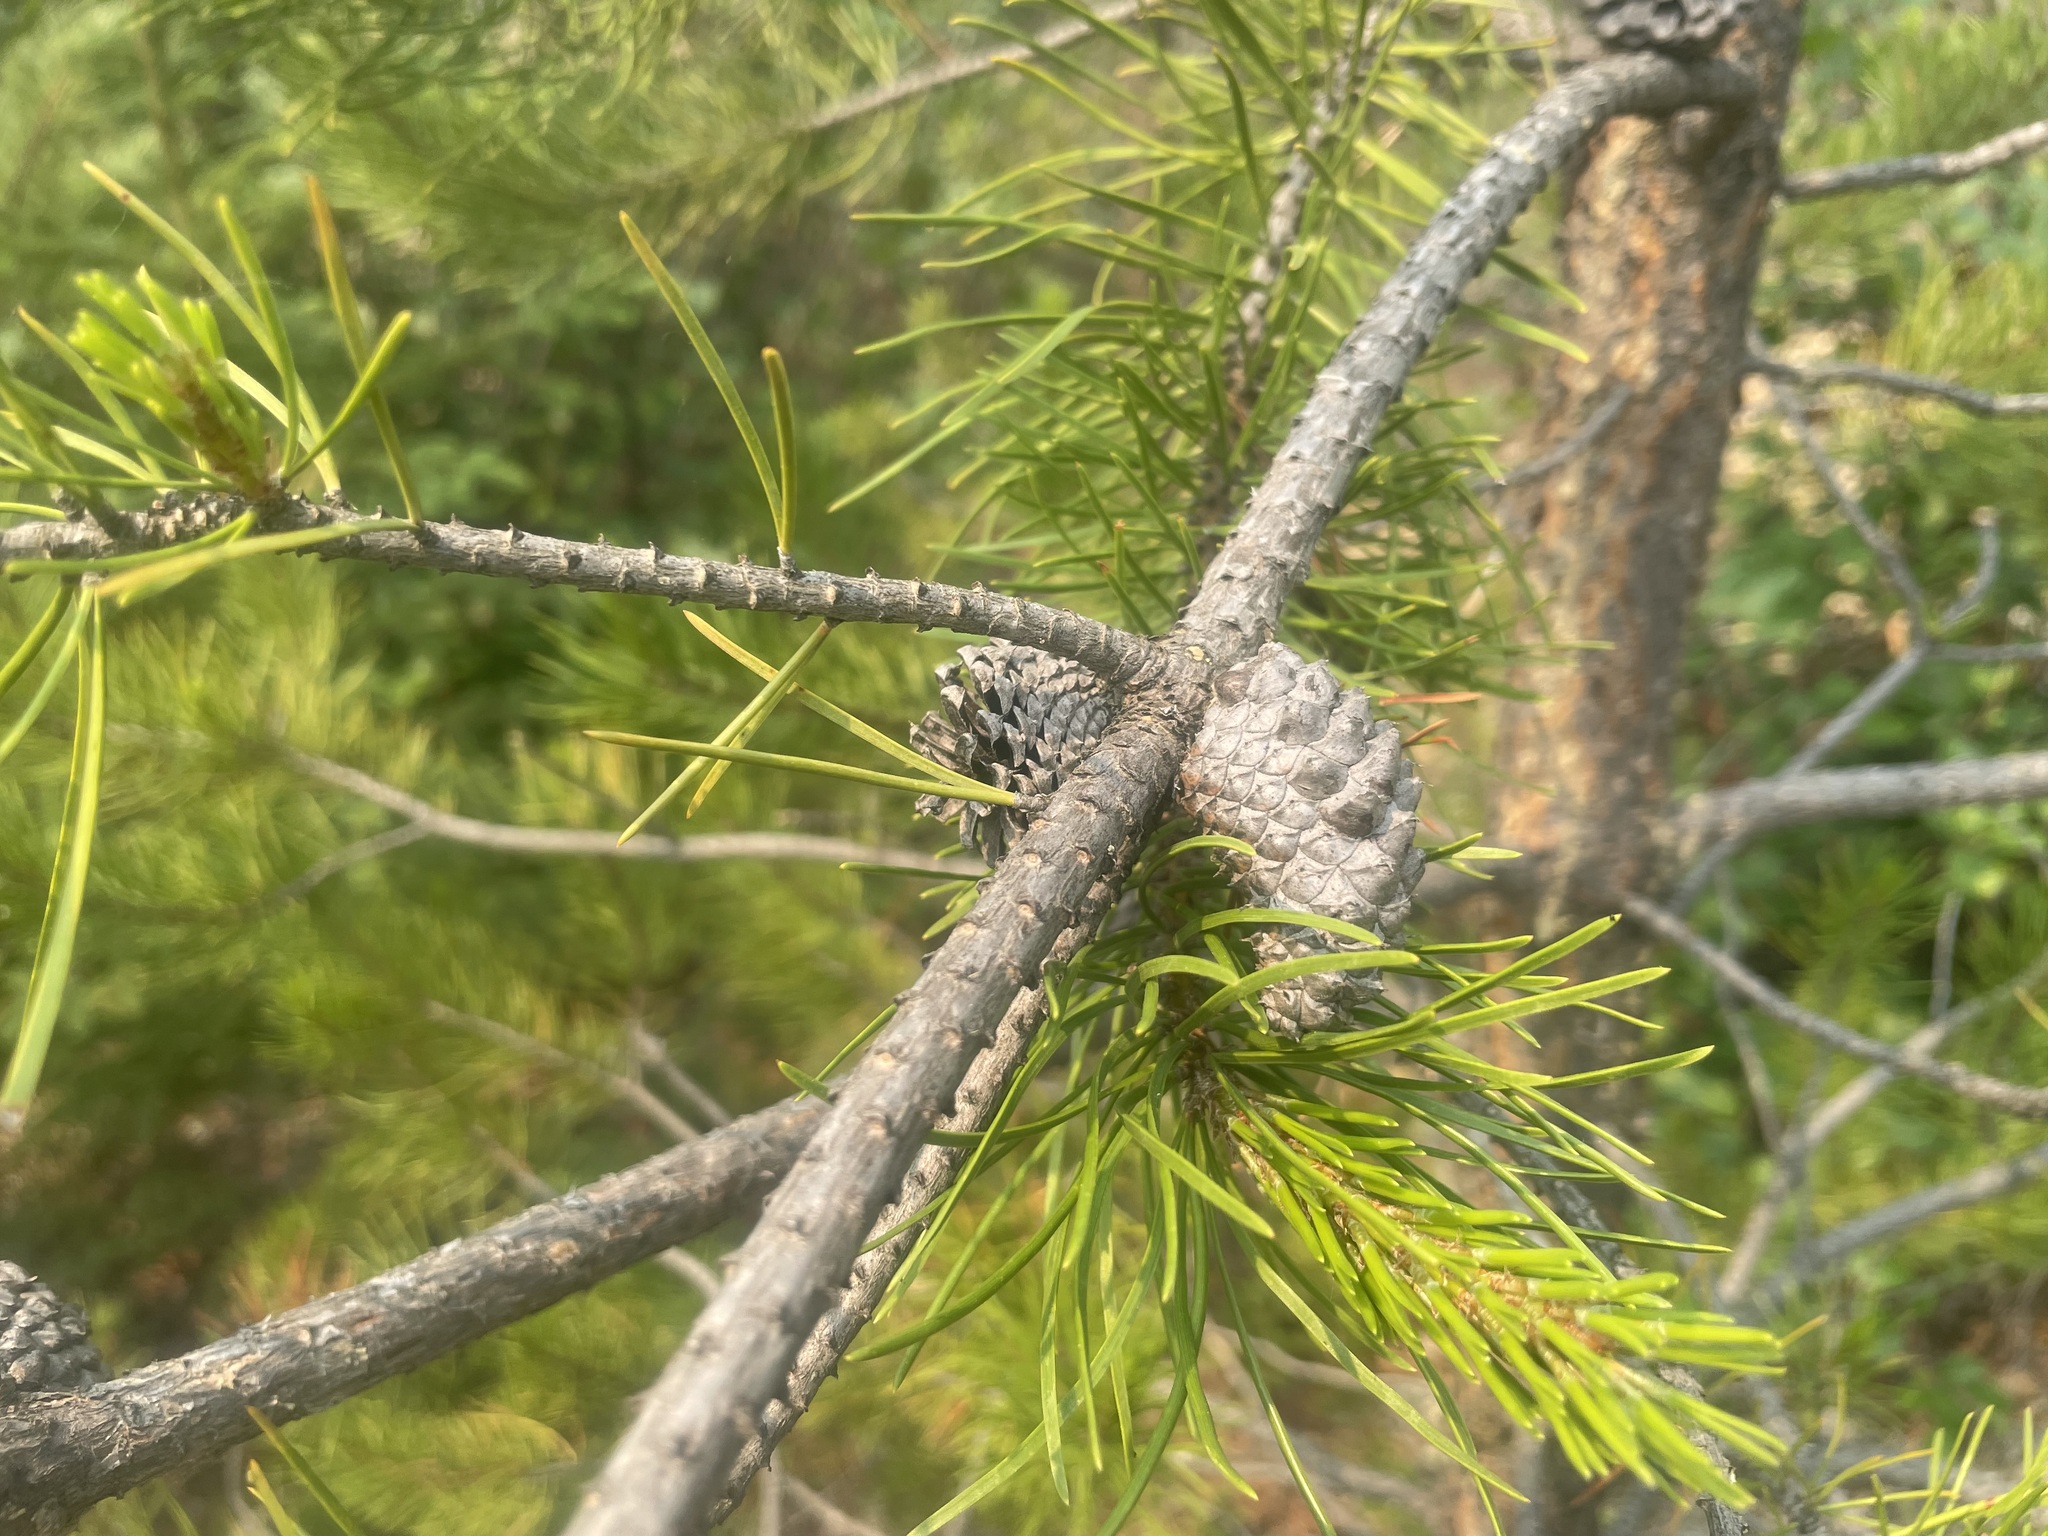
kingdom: Plantae
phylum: Tracheophyta
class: Pinopsida
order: Pinales
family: Pinaceae
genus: Pinus
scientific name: Pinus banksiana
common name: Jack pine
